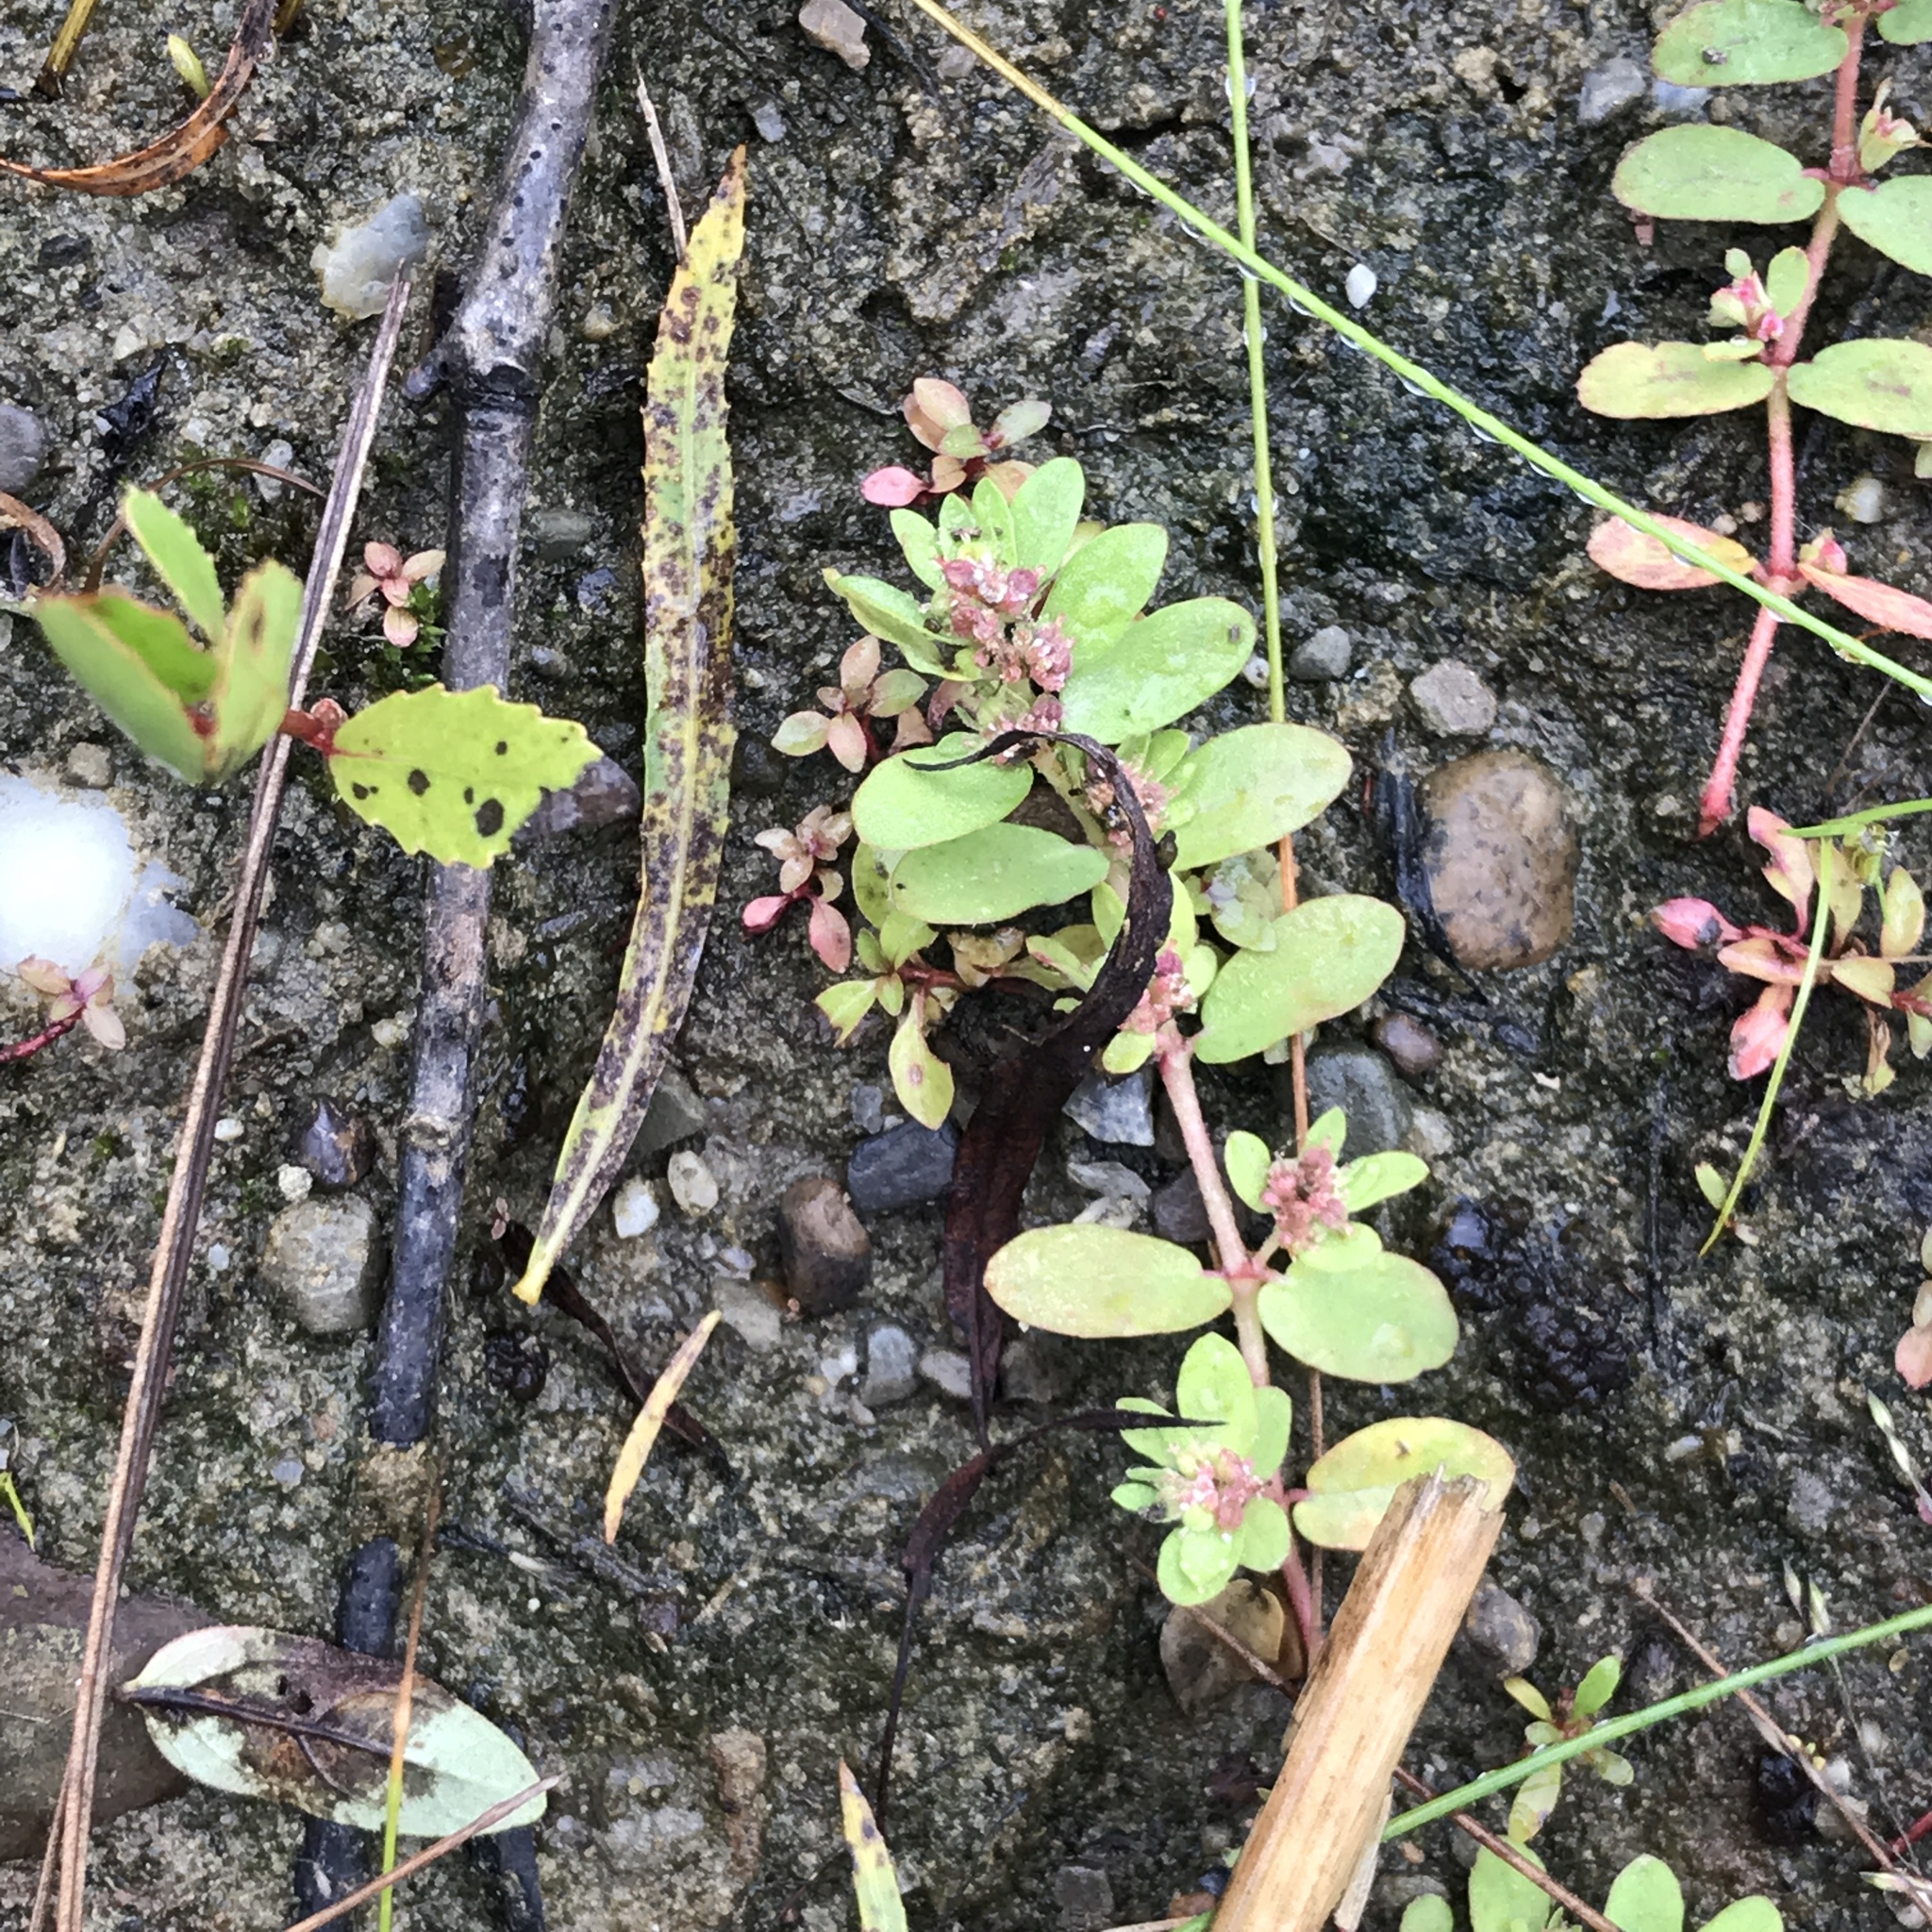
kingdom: Plantae
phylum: Tracheophyta
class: Magnoliopsida
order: Malpighiales
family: Euphorbiaceae
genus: Euphorbia
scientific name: Euphorbia maculata
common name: Spotted spurge
